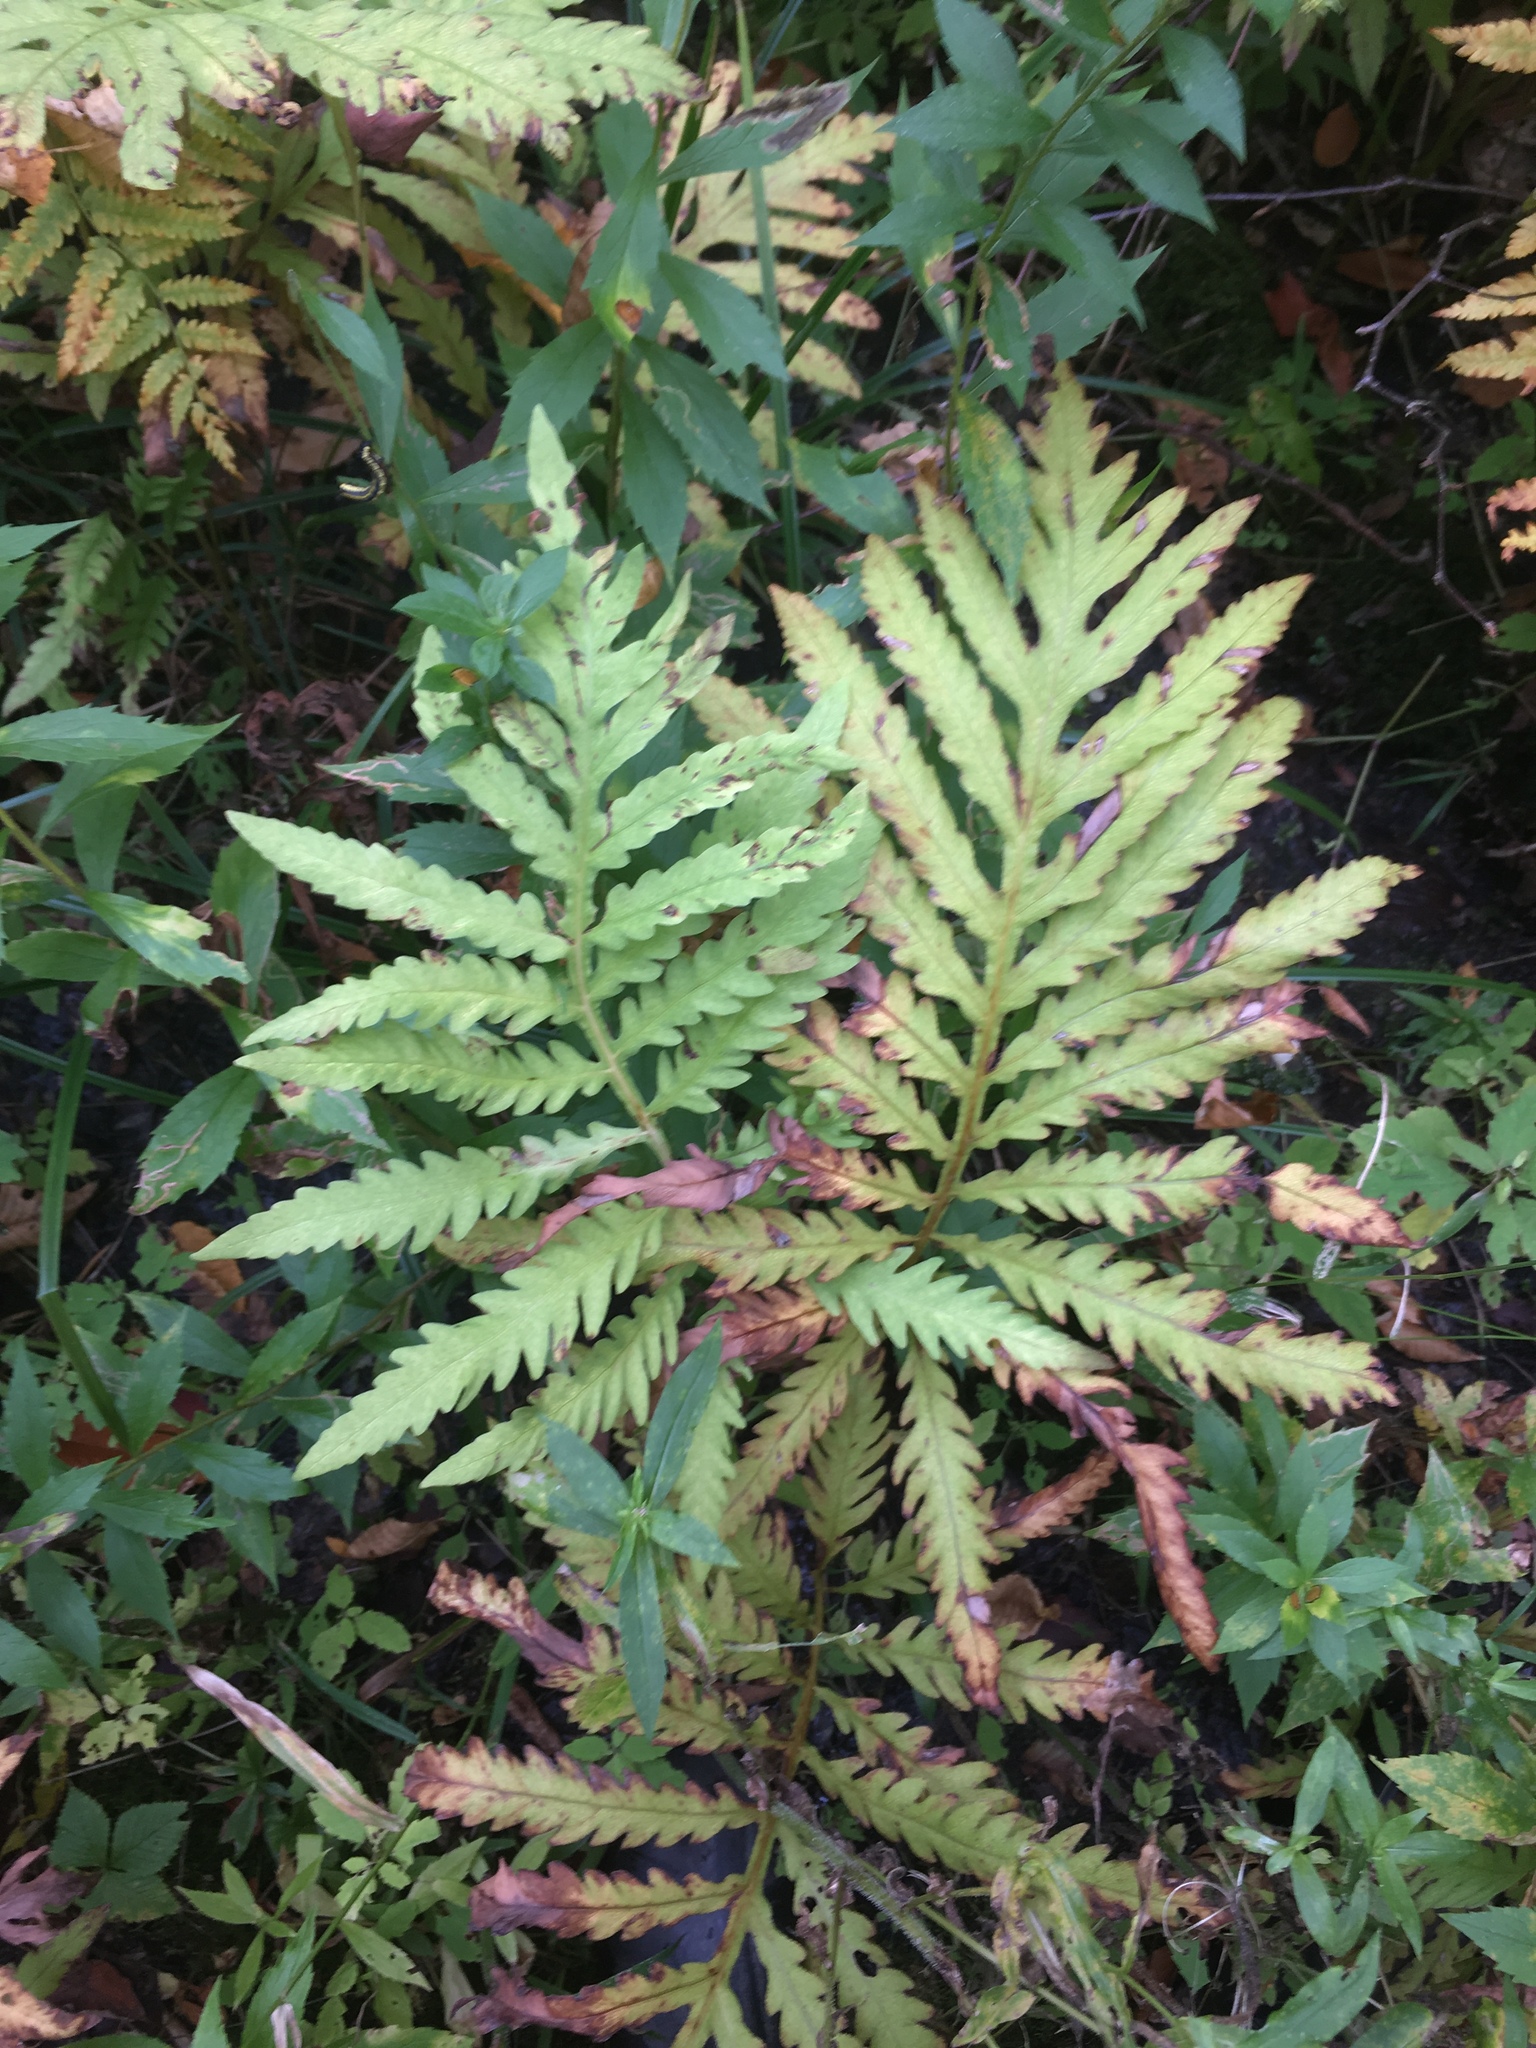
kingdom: Plantae
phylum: Tracheophyta
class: Polypodiopsida
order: Polypodiales
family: Onocleaceae
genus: Onoclea
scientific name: Onoclea sensibilis
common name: Sensitive fern
